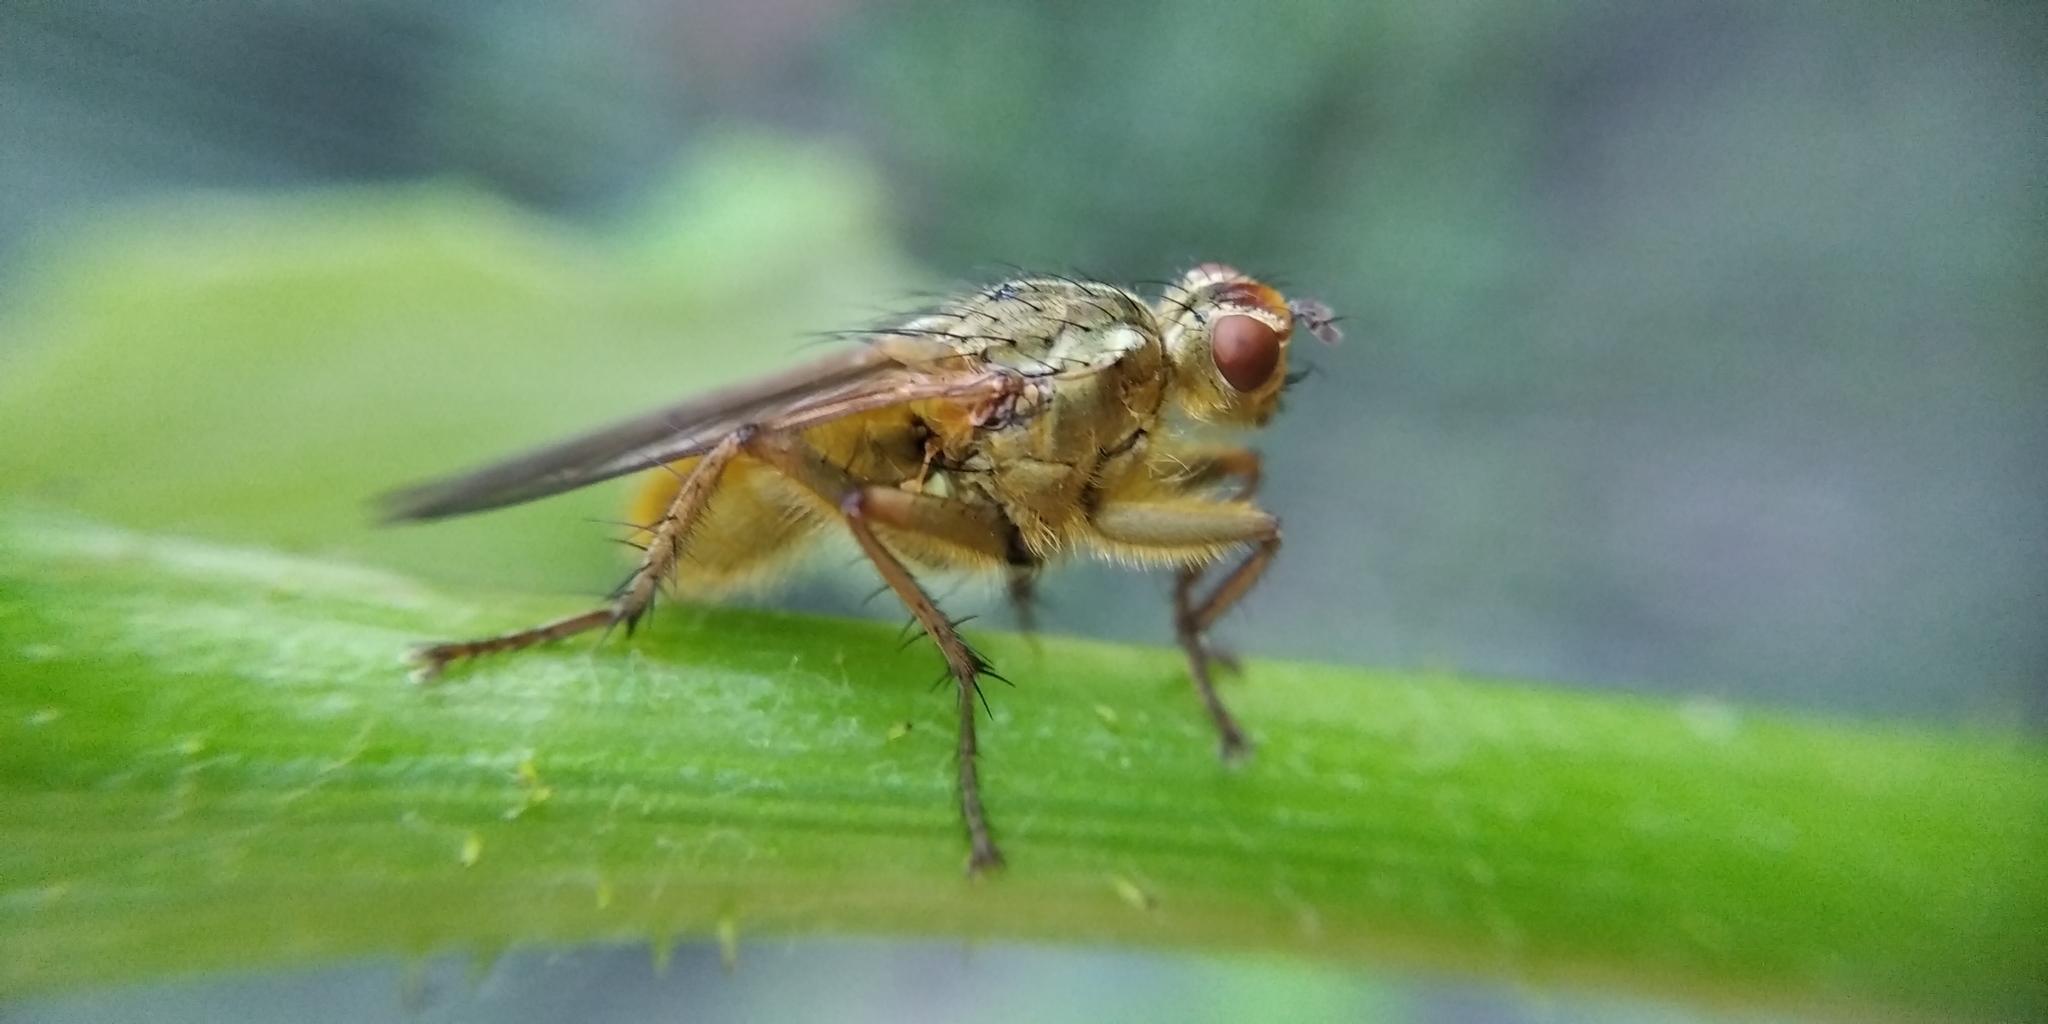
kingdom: Animalia
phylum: Arthropoda
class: Insecta
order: Diptera
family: Scathophagidae
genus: Scathophaga
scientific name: Scathophaga stercoraria
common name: Yellow dung fly
